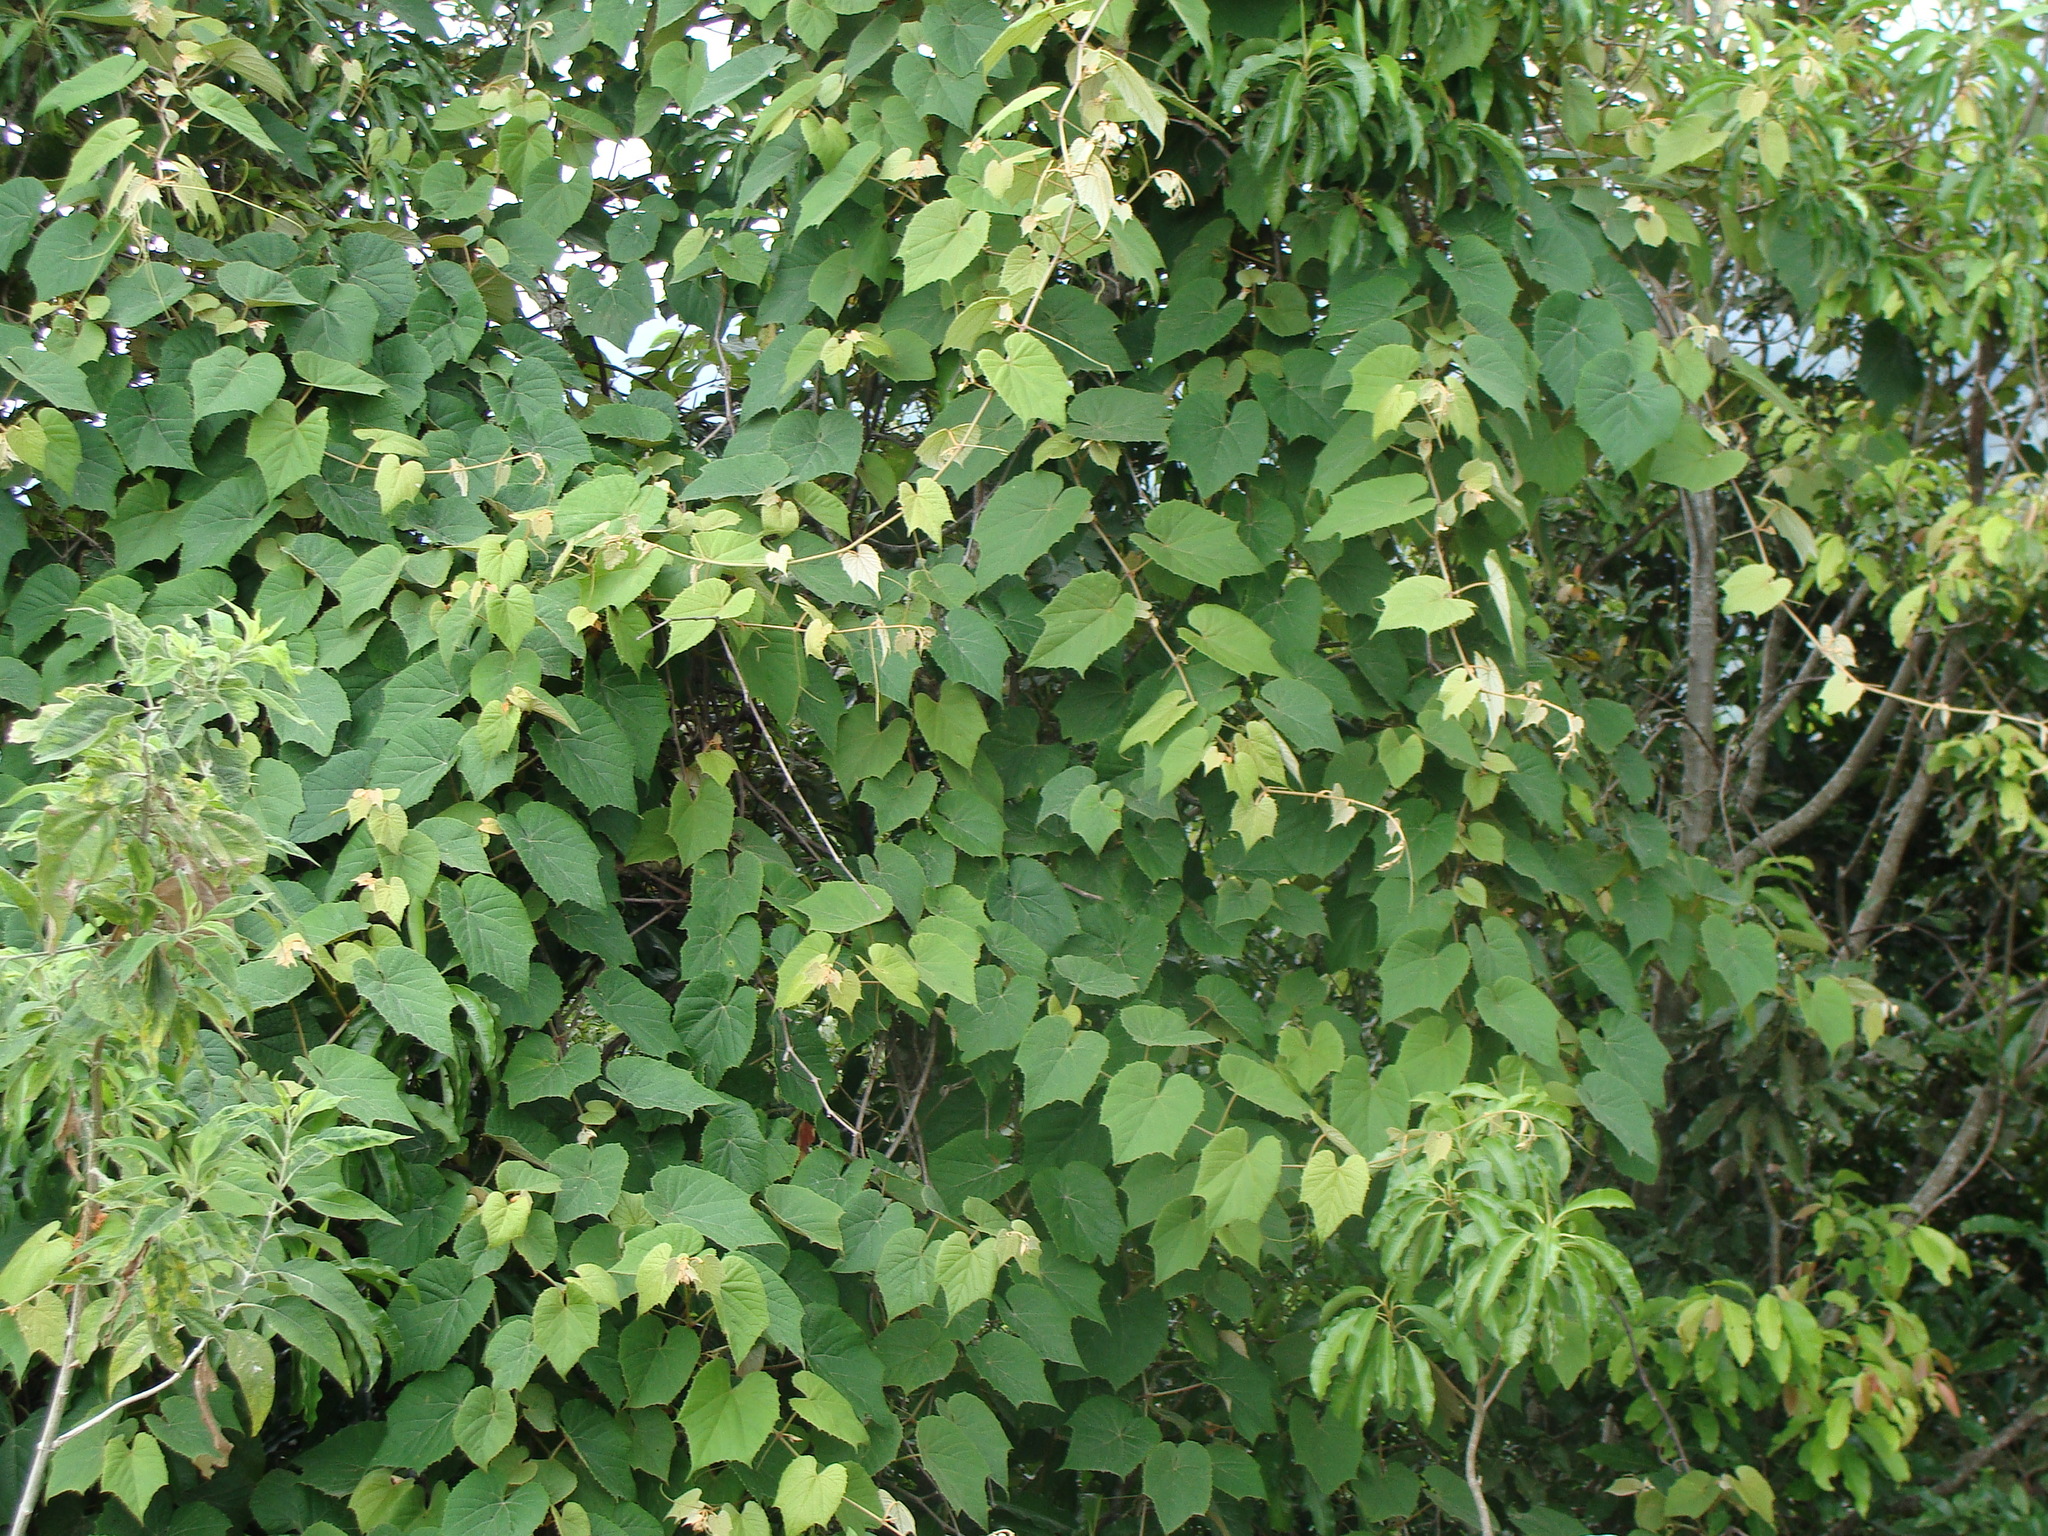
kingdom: Plantae
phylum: Tracheophyta
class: Magnoliopsida
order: Vitales
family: Vitaceae
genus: Vitis
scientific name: Vitis tiliifolia
